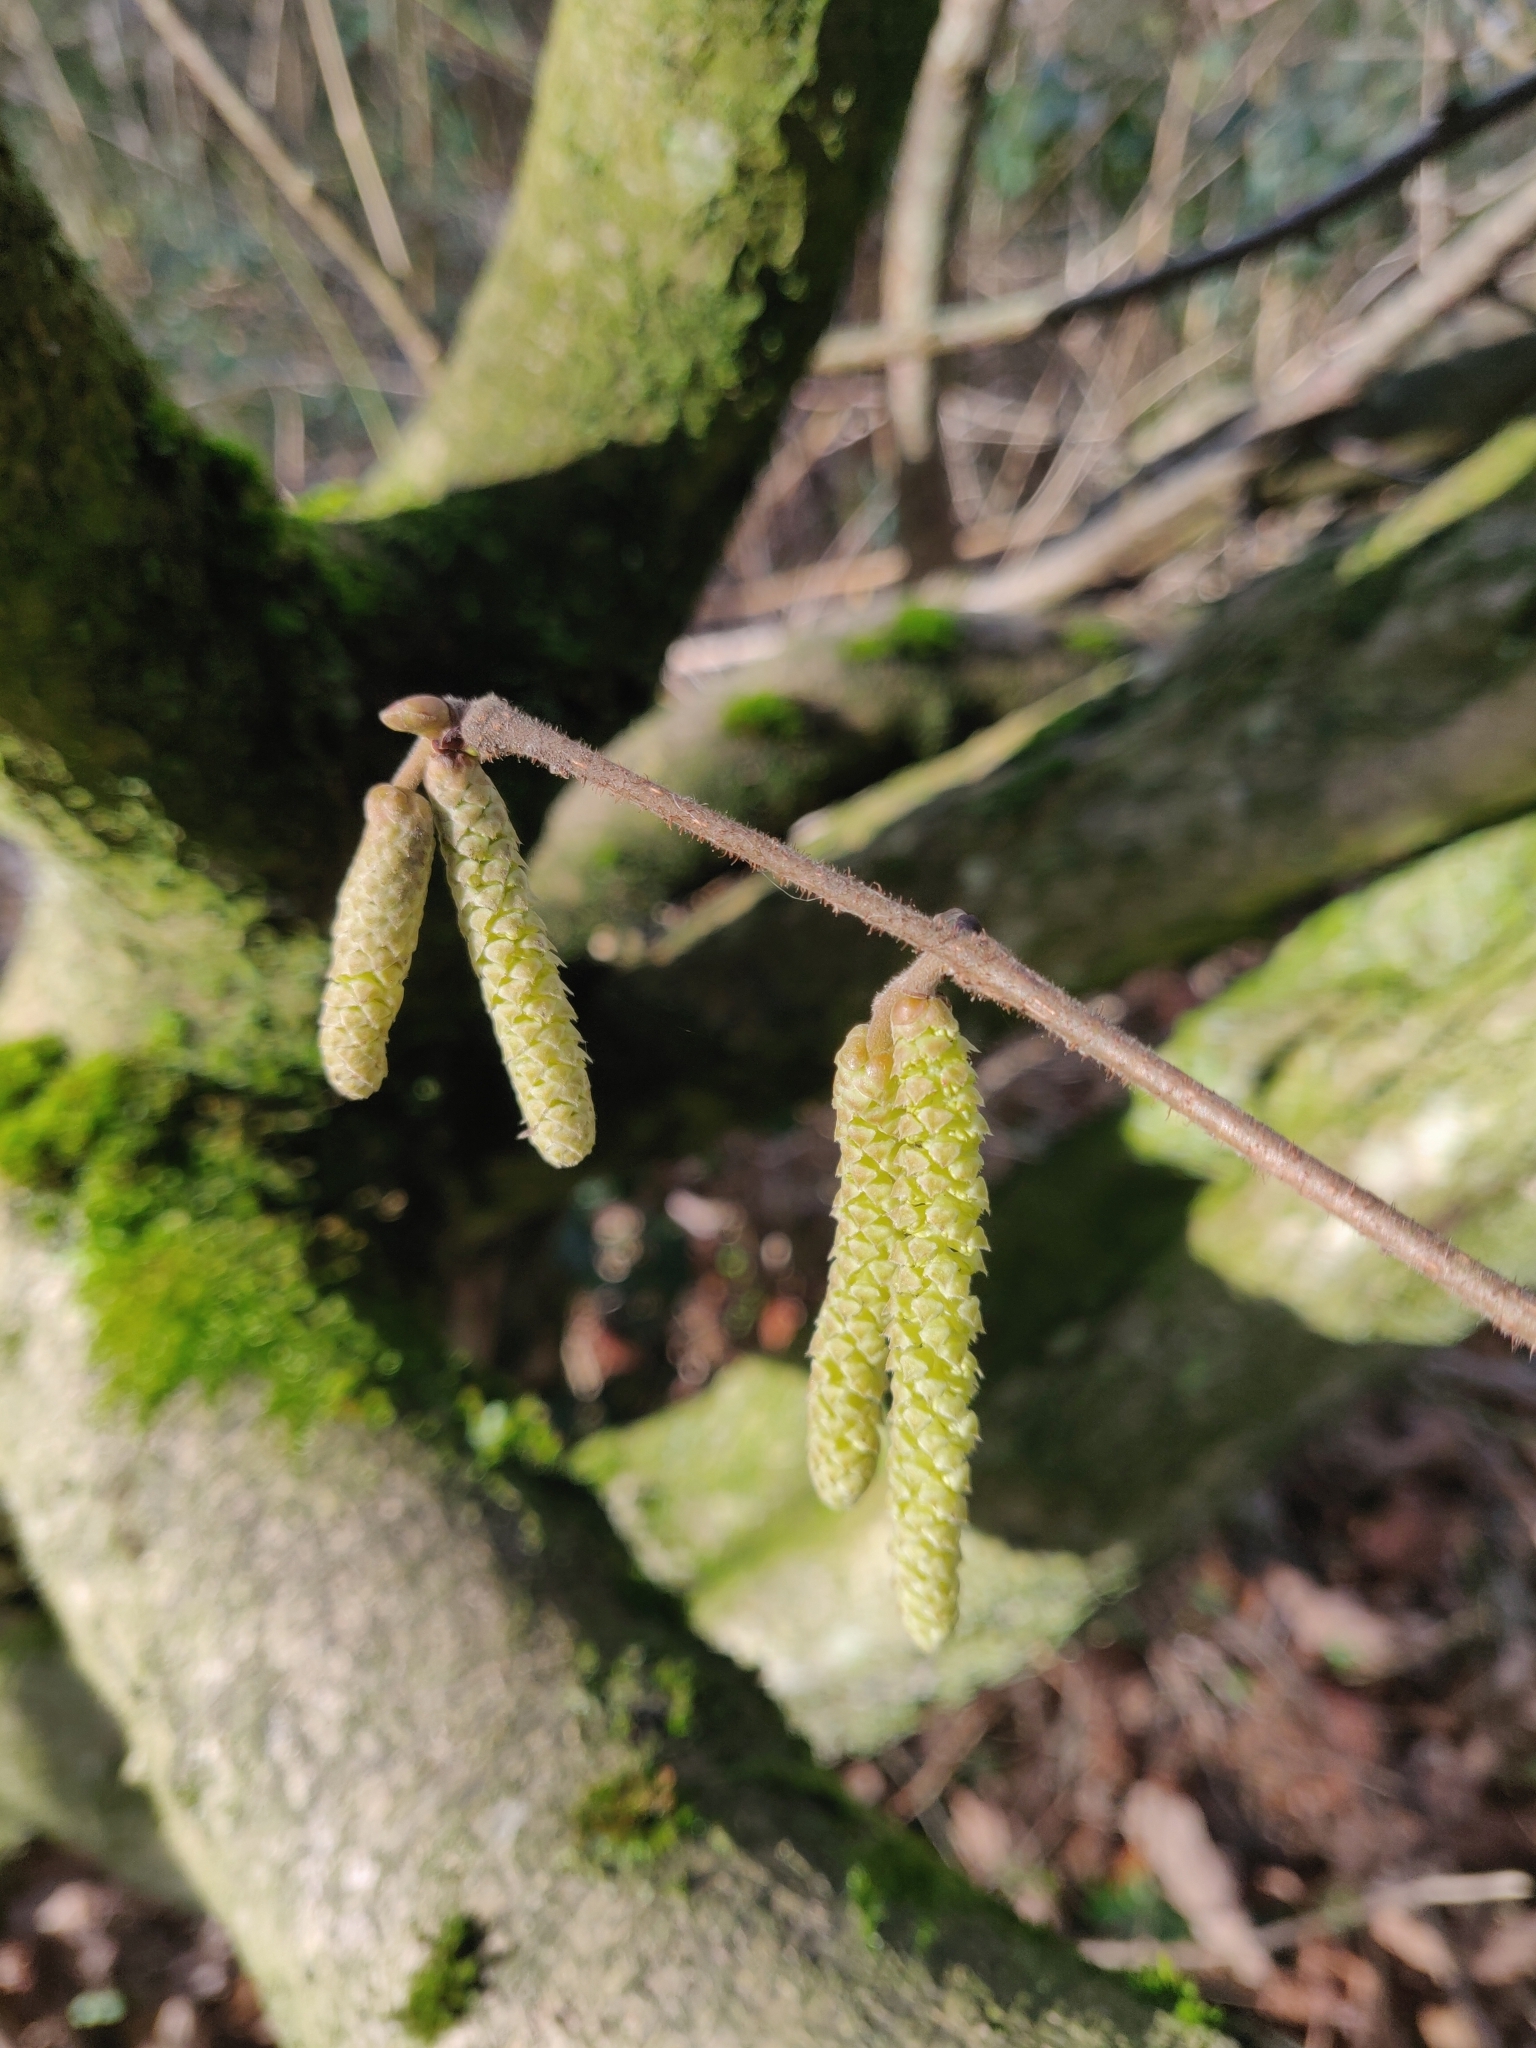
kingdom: Plantae
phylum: Tracheophyta
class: Magnoliopsida
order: Fagales
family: Betulaceae
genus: Corylus
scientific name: Corylus avellana
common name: European hazel
